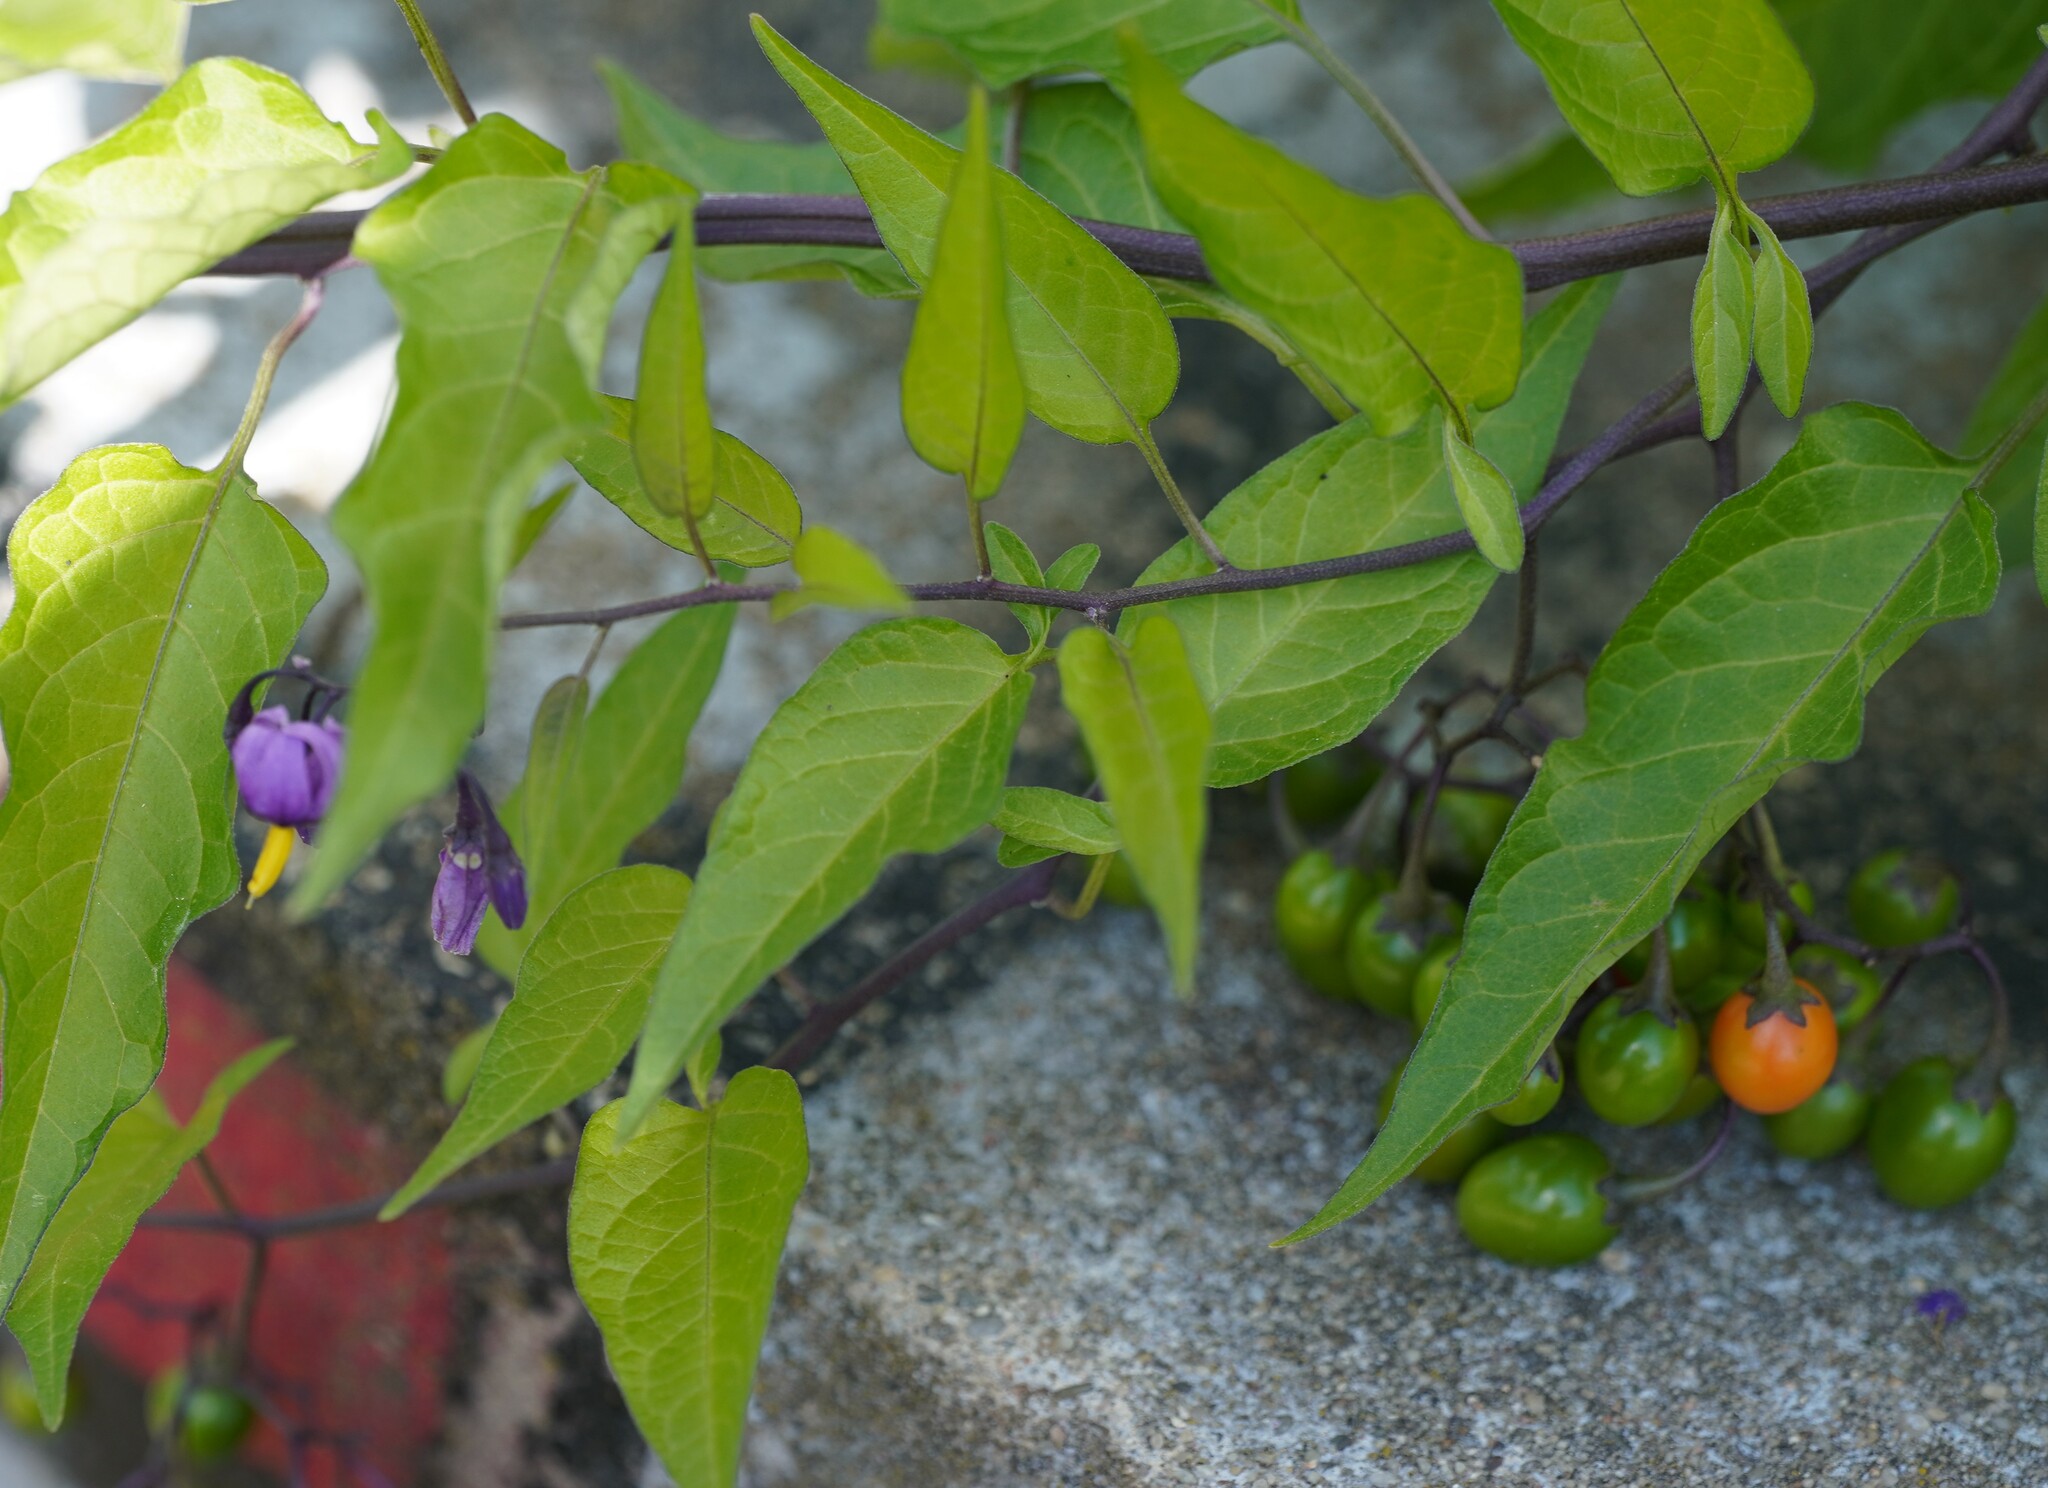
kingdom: Plantae
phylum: Tracheophyta
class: Magnoliopsida
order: Solanales
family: Solanaceae
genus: Solanum
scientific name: Solanum dulcamara
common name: Climbing nightshade
